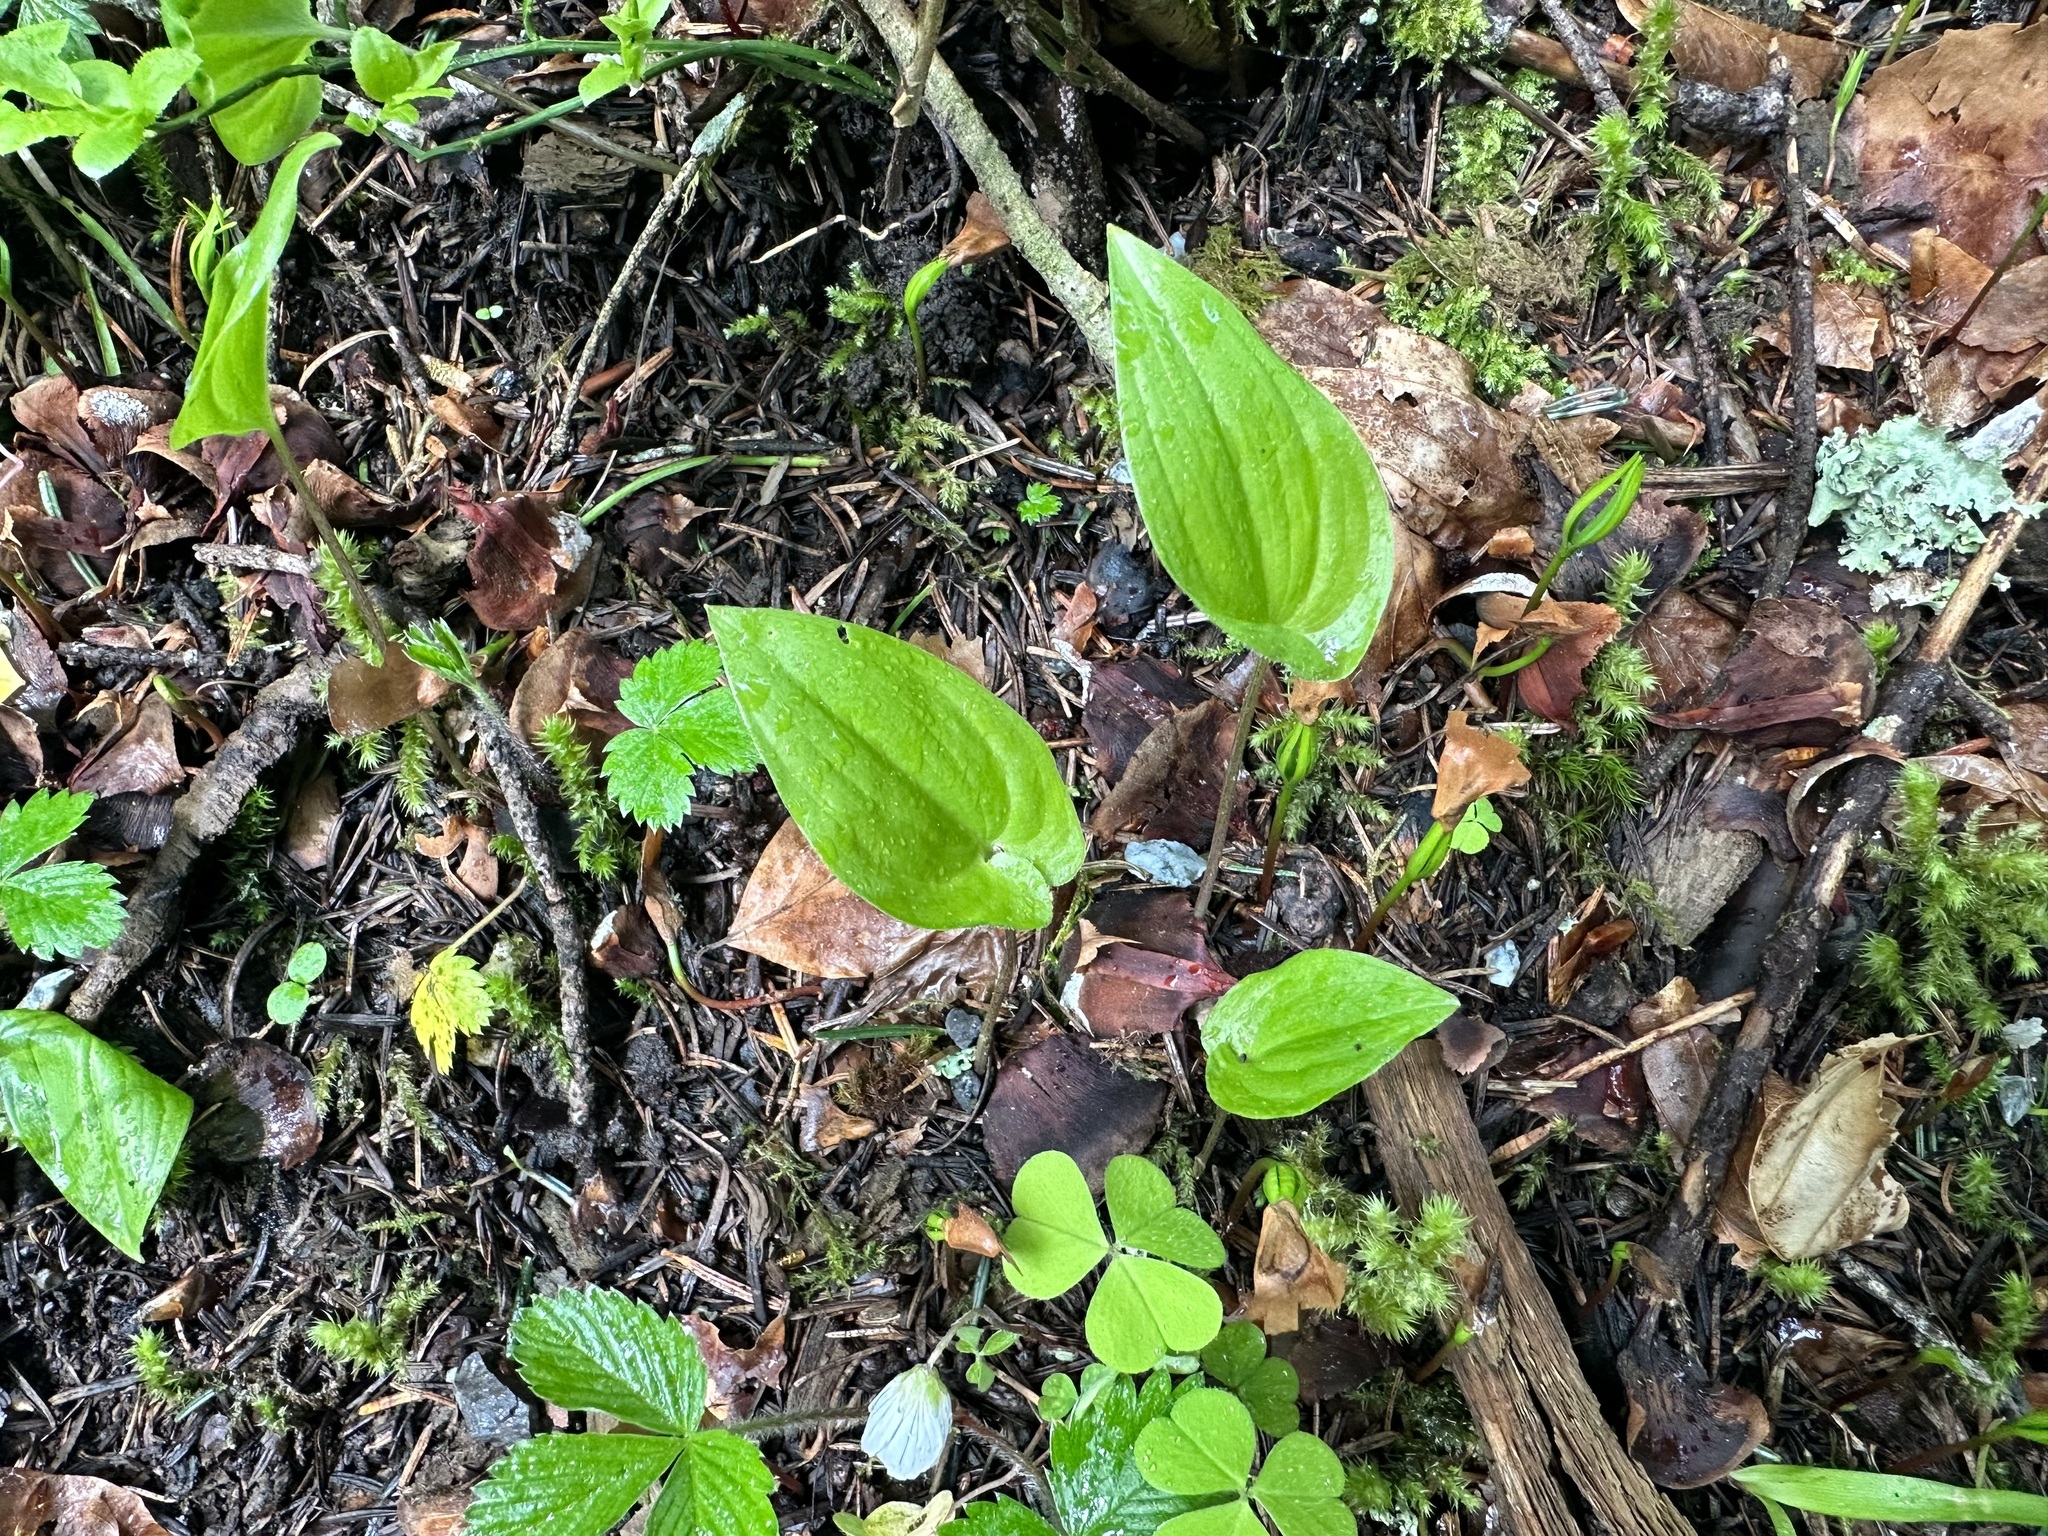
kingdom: Plantae
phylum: Tracheophyta
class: Liliopsida
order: Asparagales
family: Asparagaceae
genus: Maianthemum
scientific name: Maianthemum bifolium
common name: May lily
